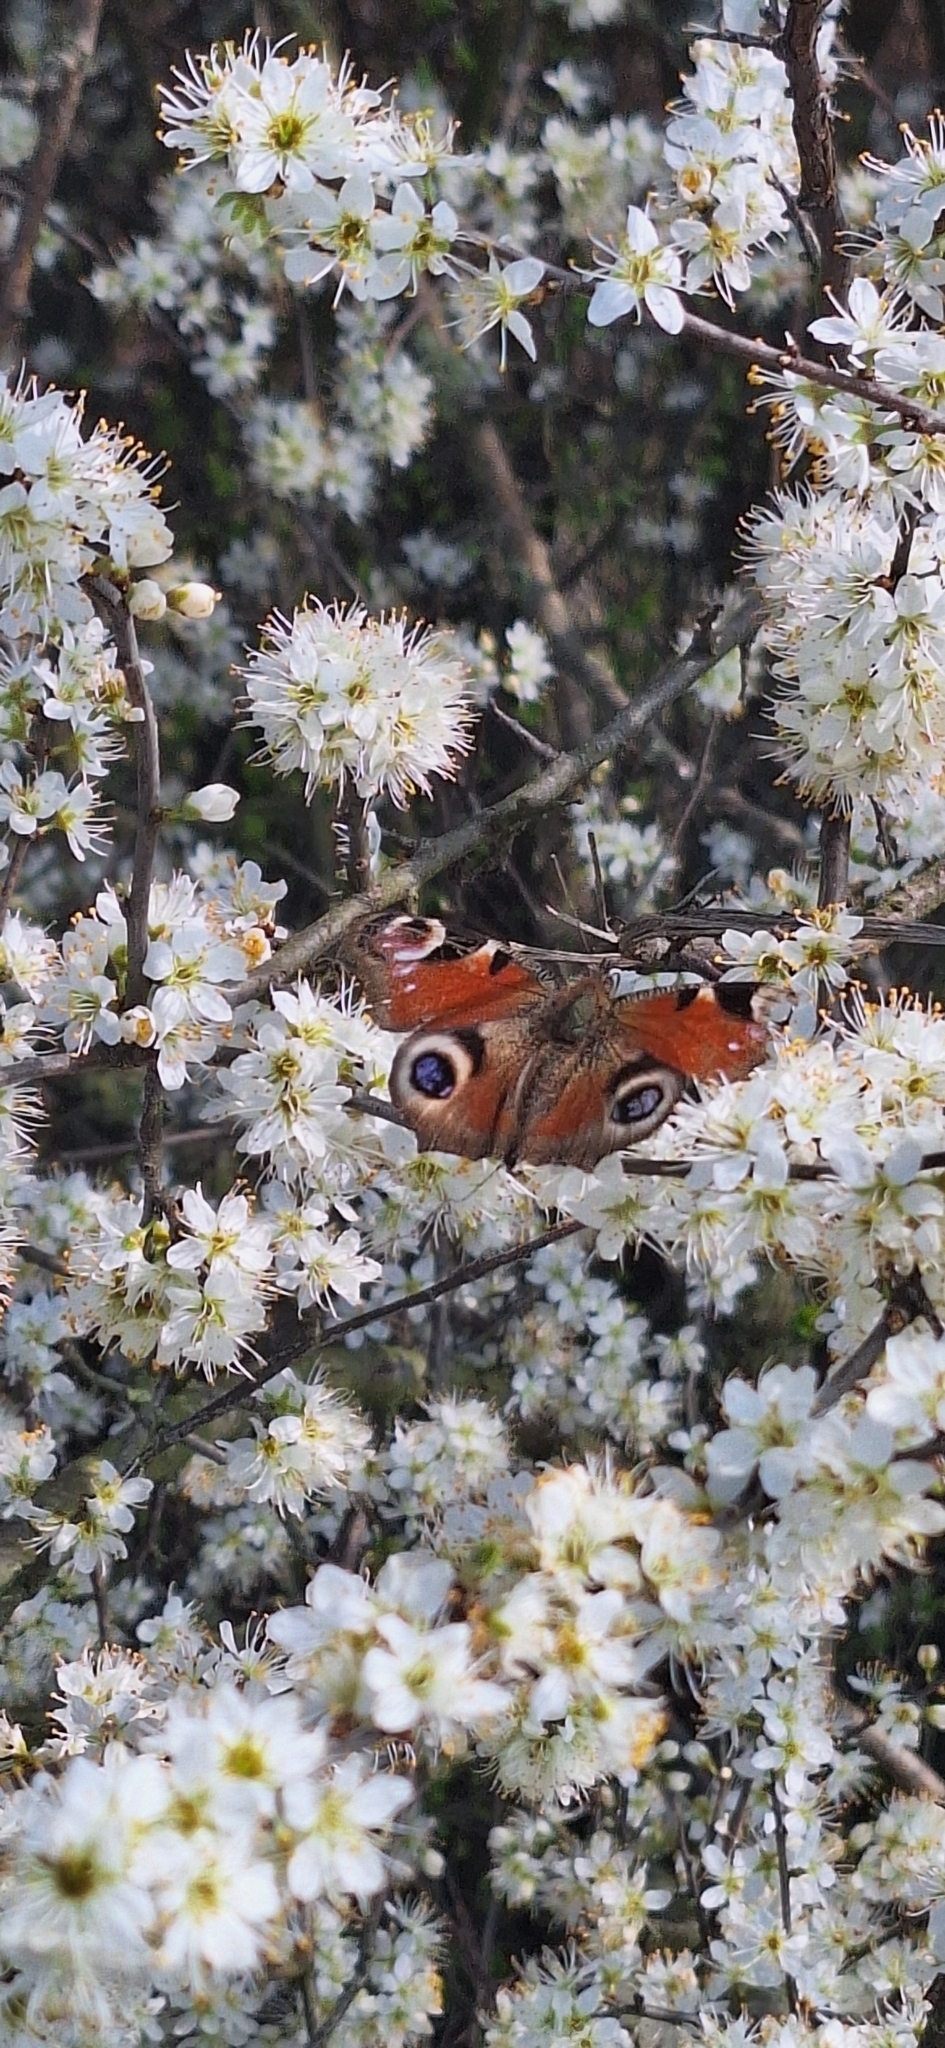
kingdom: Animalia
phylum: Arthropoda
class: Insecta
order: Lepidoptera
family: Nymphalidae
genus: Aglais
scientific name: Aglais io
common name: Peacock
